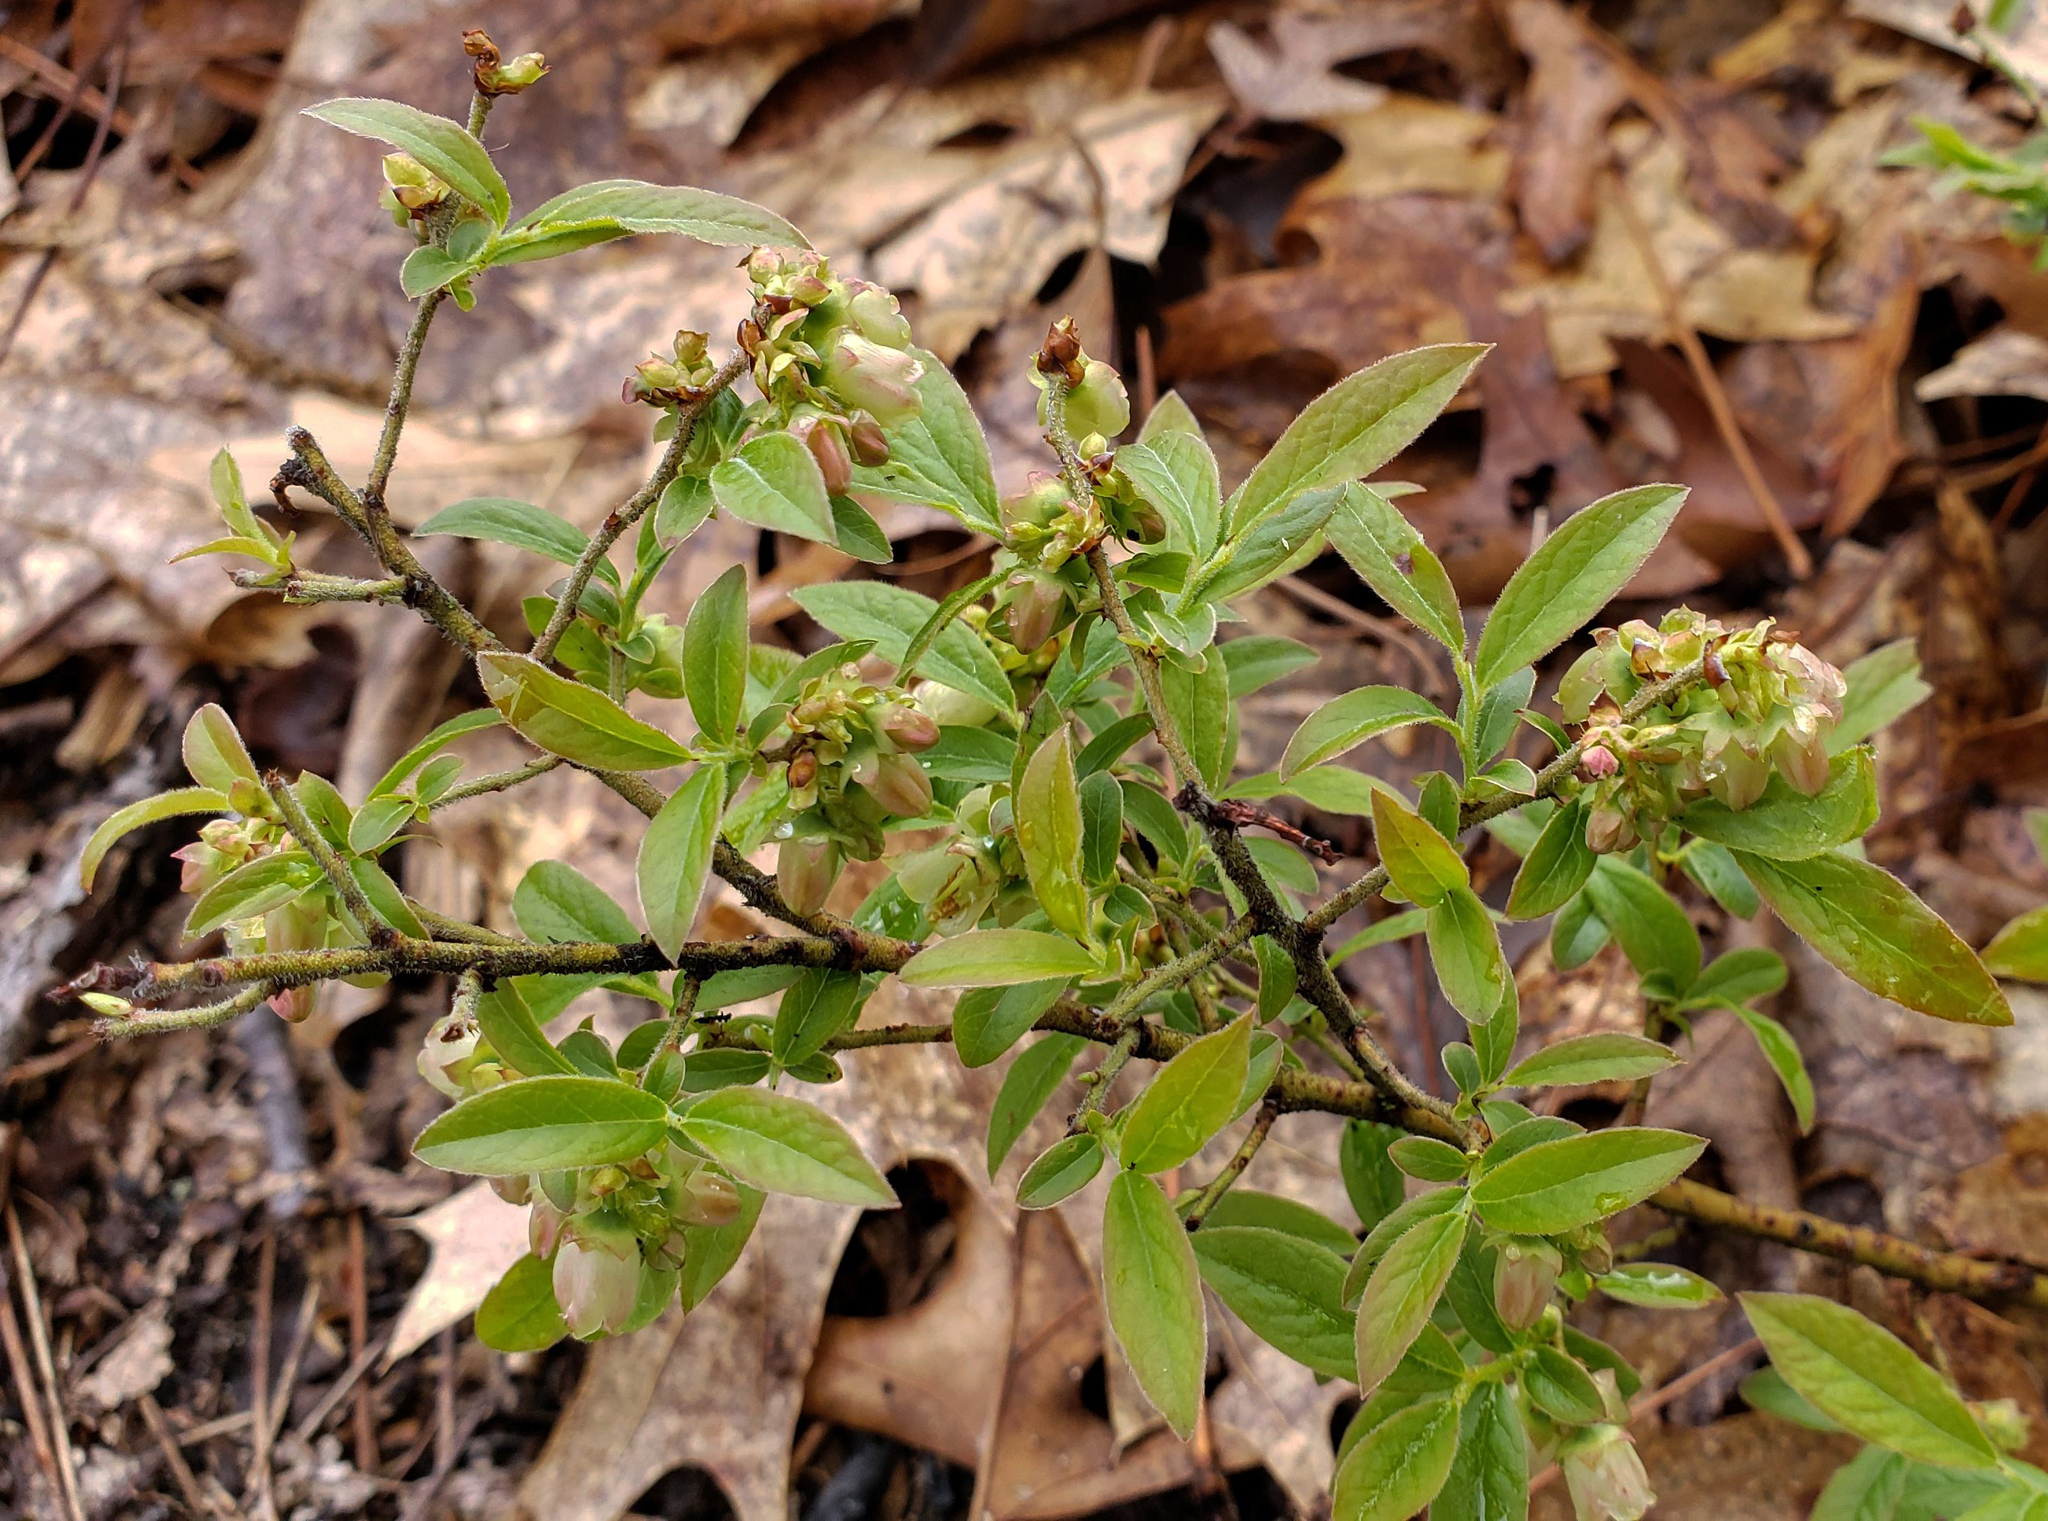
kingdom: Plantae
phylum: Tracheophyta
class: Magnoliopsida
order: Ericales
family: Ericaceae
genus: Vaccinium
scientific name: Vaccinium angustifolium
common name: Early lowbush blueberry
